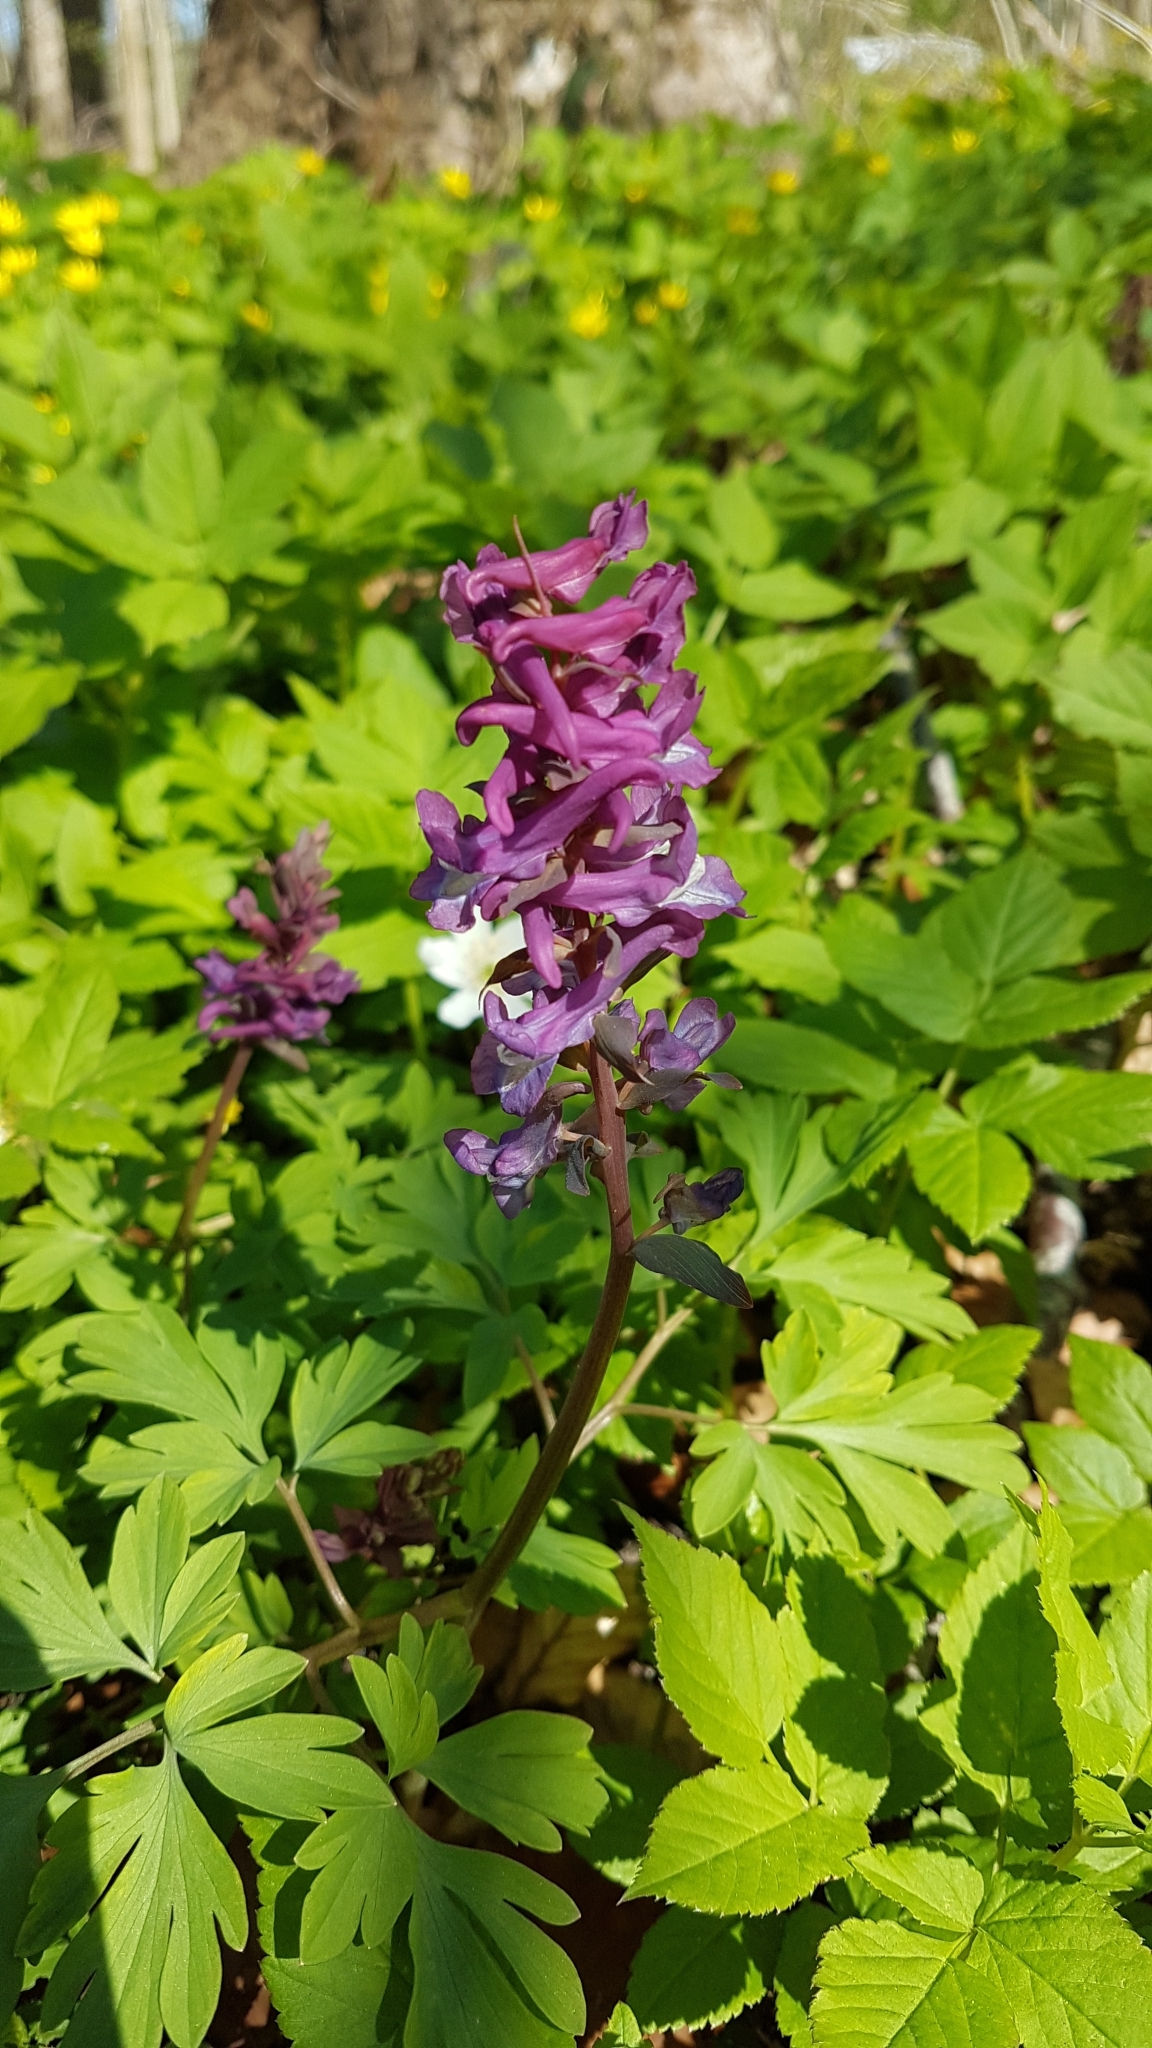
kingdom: Plantae
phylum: Tracheophyta
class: Magnoliopsida
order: Ranunculales
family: Papaveraceae
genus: Corydalis
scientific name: Corydalis cava
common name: Hollowroot
